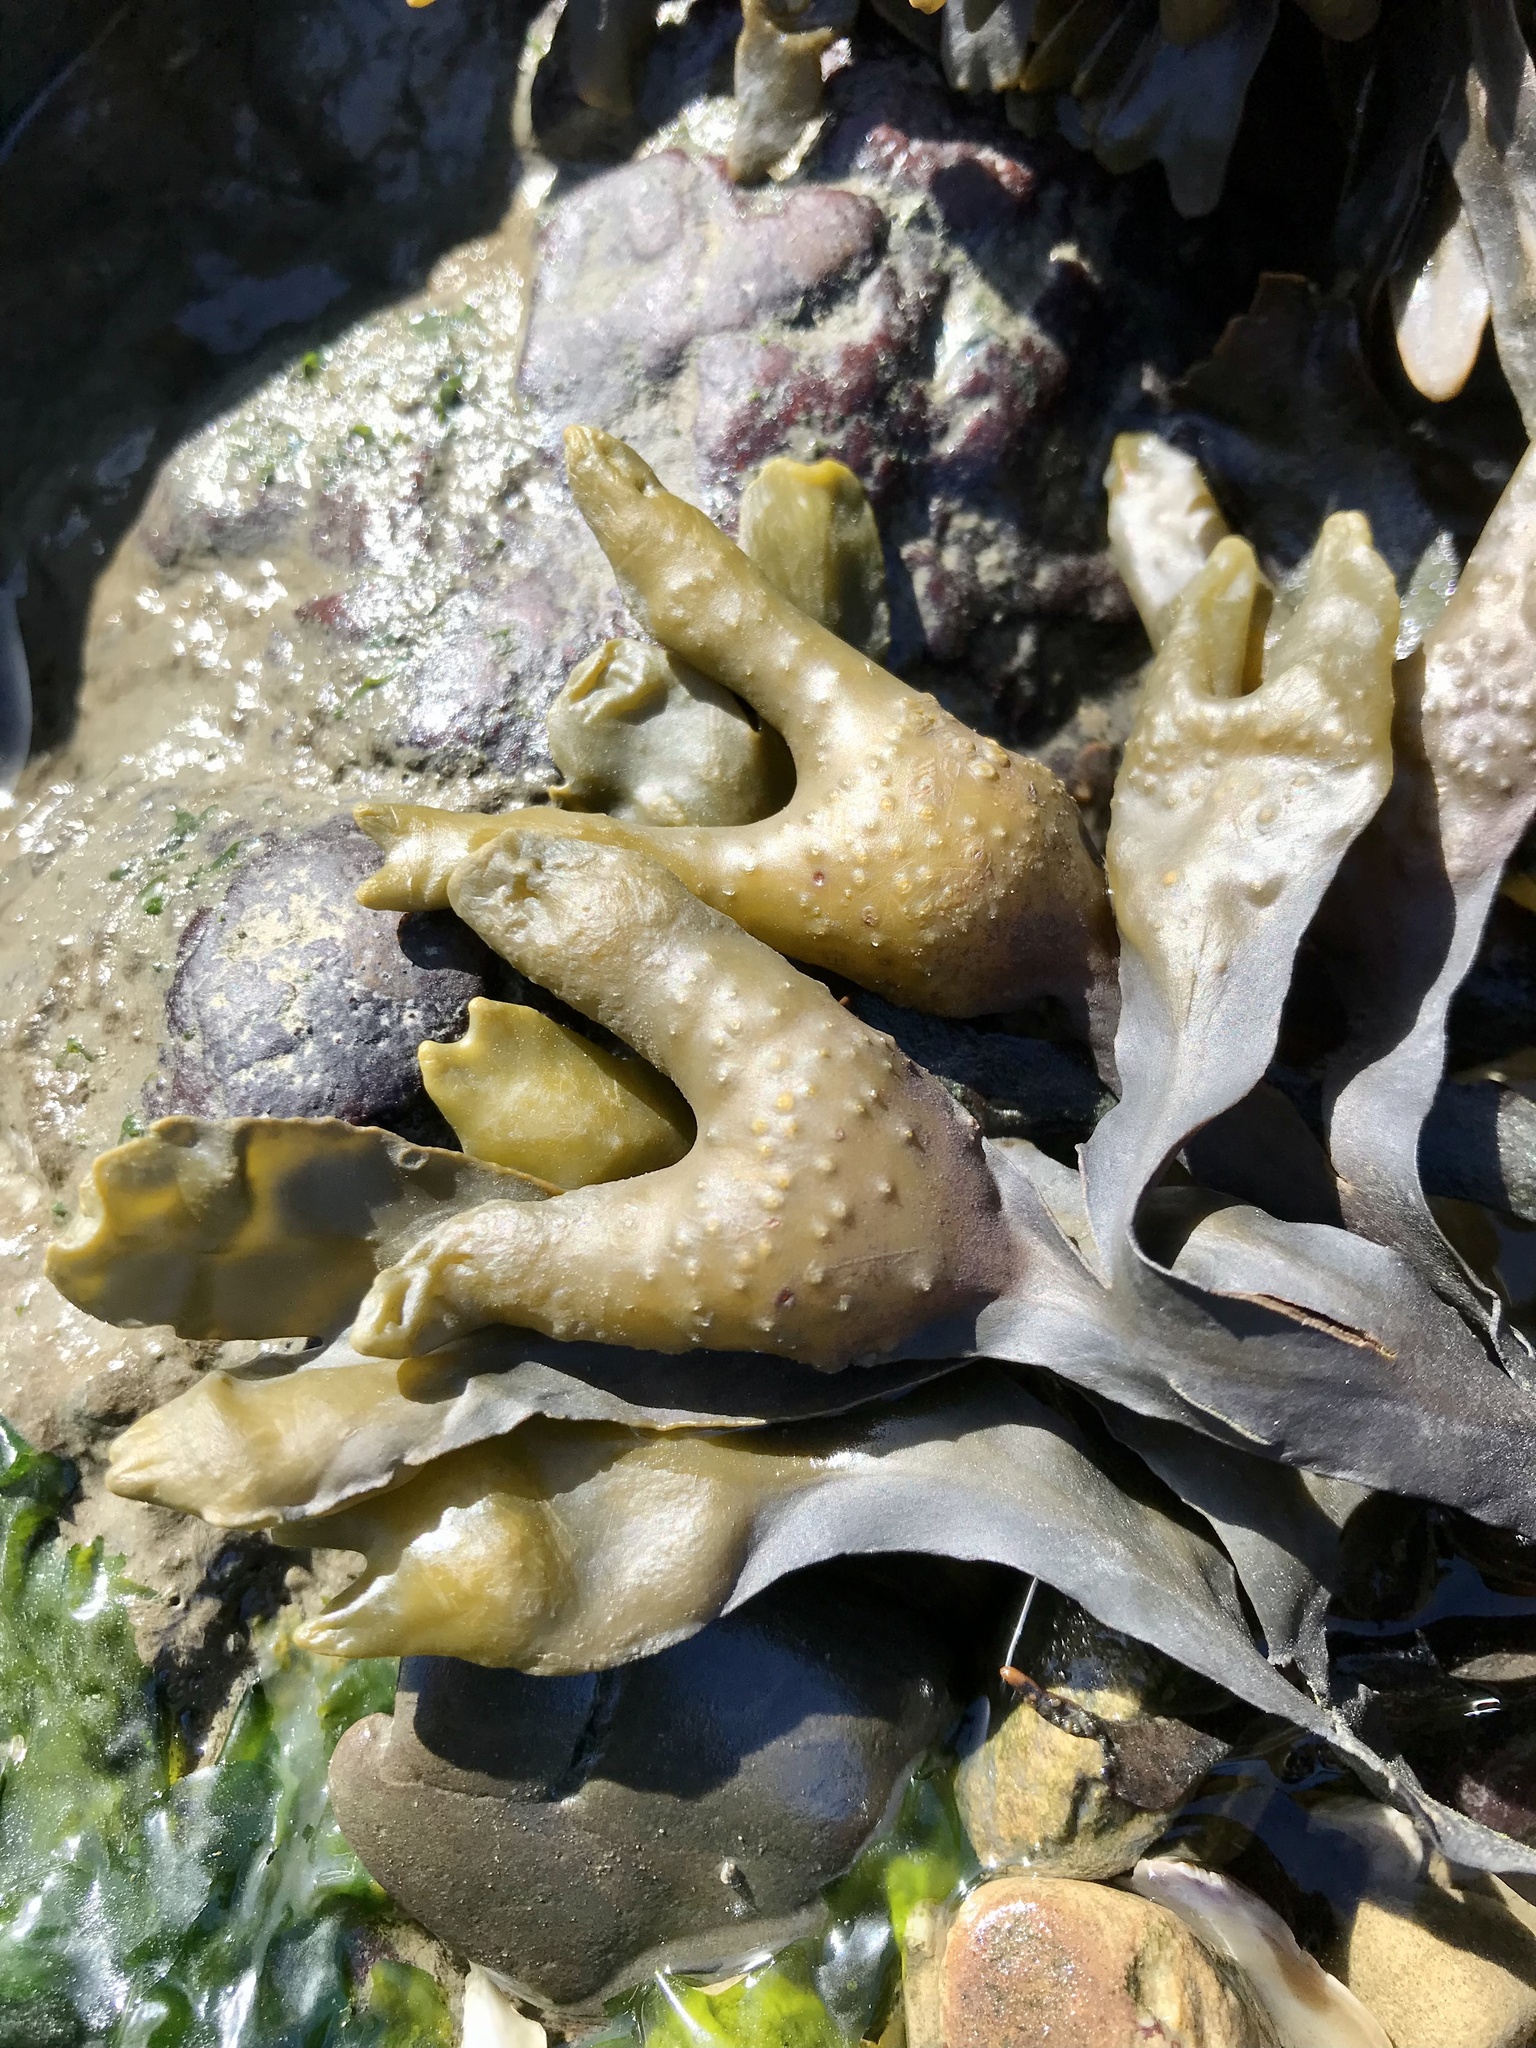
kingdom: Chromista
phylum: Ochrophyta
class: Phaeophyceae
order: Fucales
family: Fucaceae
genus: Fucus
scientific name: Fucus distichus
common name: Rockweed
